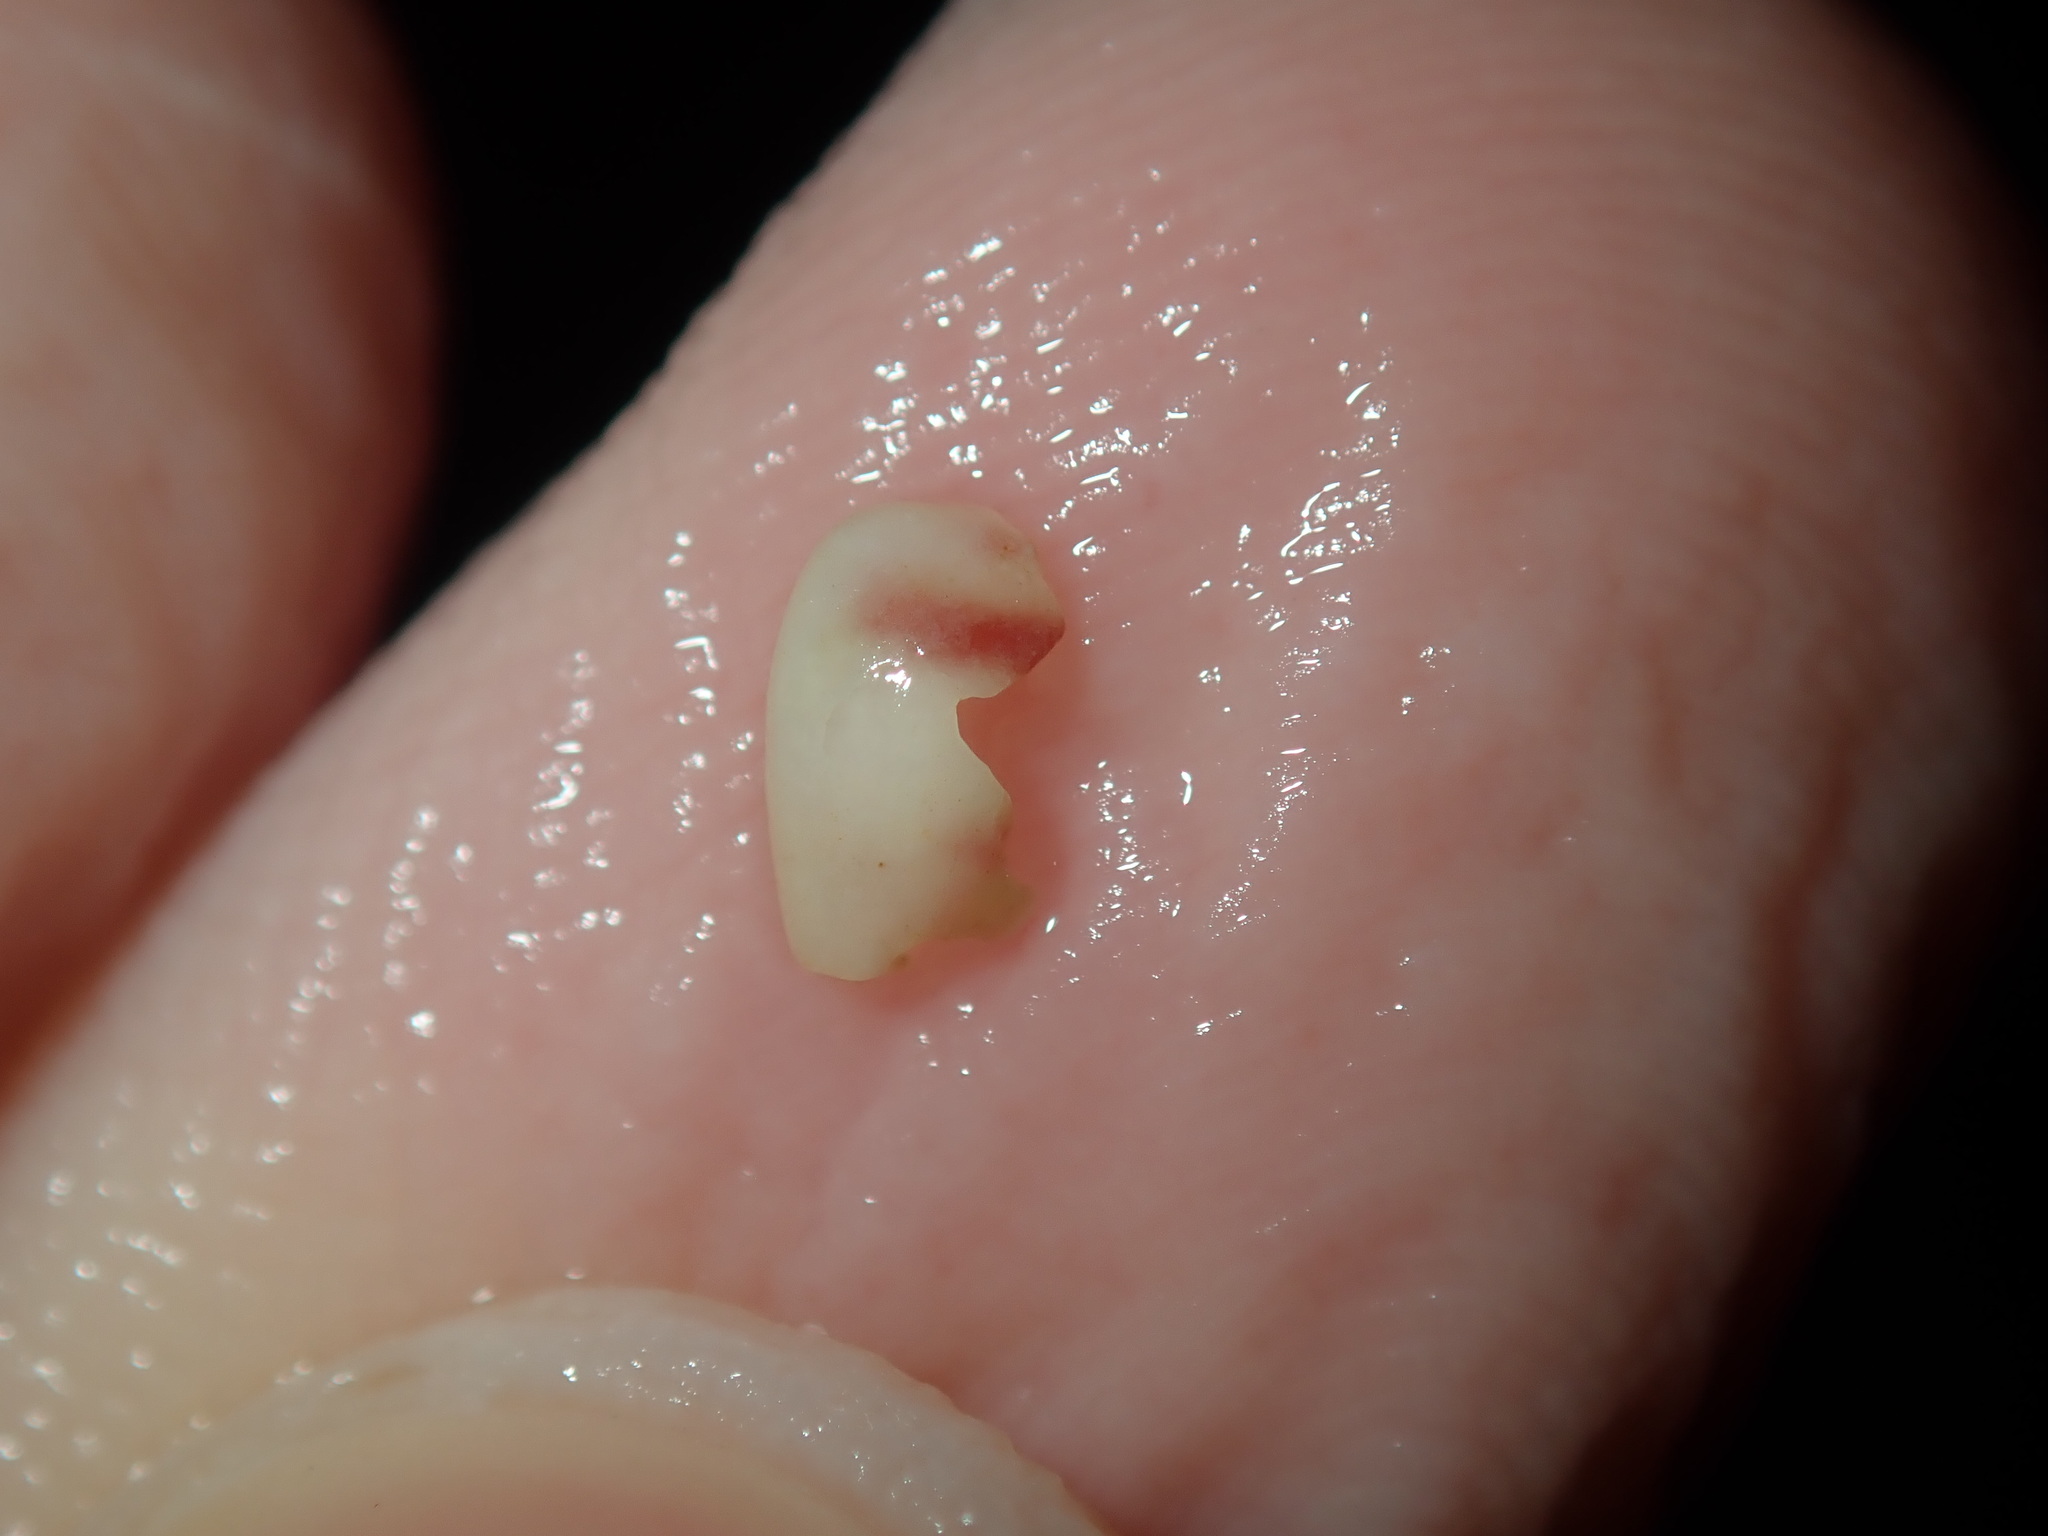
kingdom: Animalia
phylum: Mollusca
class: Gastropoda
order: Littorinimorpha
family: Eratoidae
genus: Lachryma
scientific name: Lachryma lachryma
